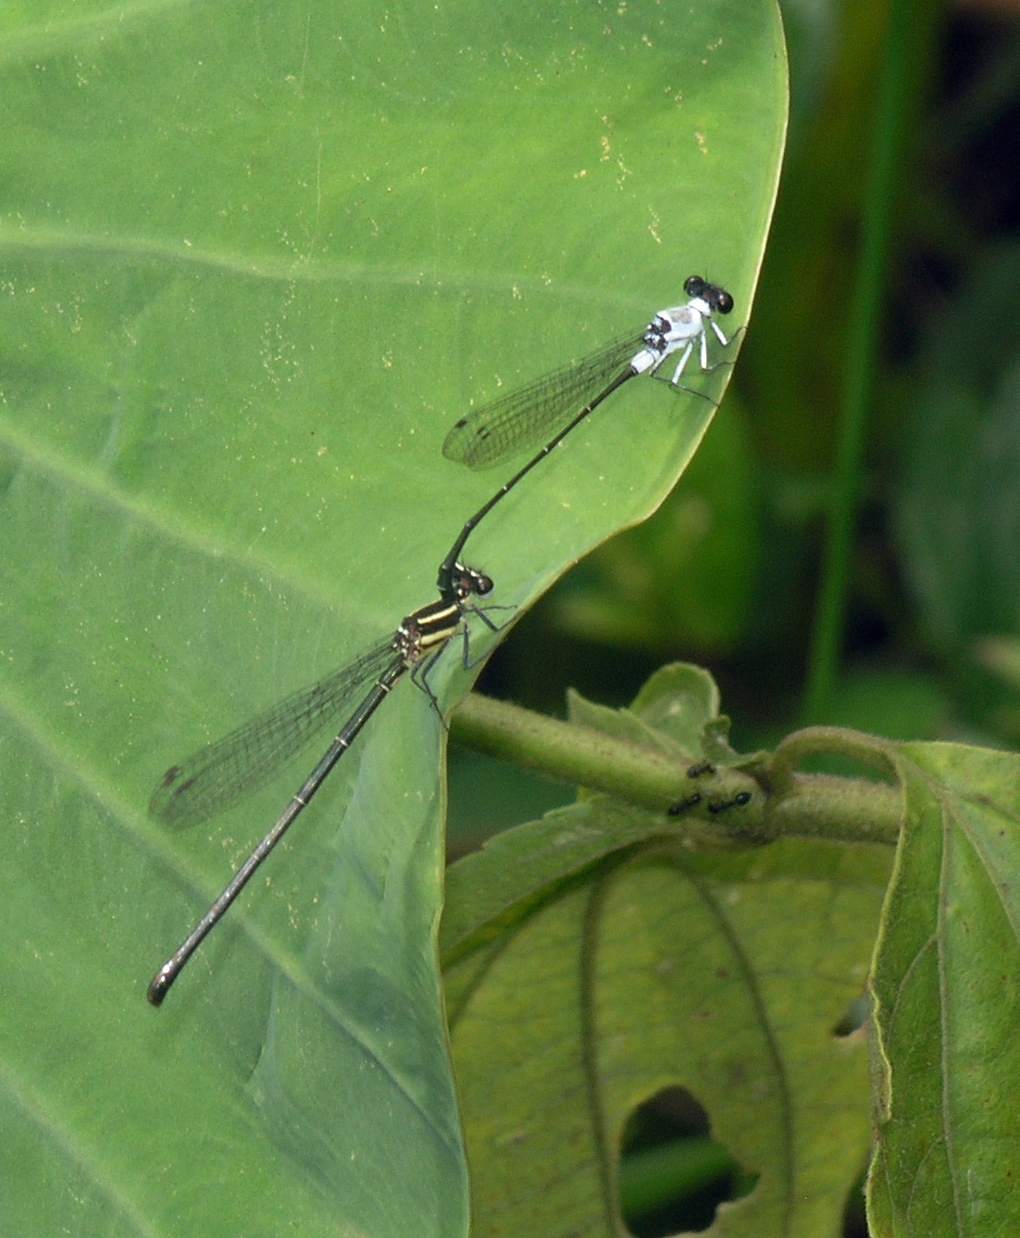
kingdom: Animalia
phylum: Arthropoda
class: Insecta
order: Odonata
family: Platycnemididae
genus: Onychargia
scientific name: Onychargia priydak
